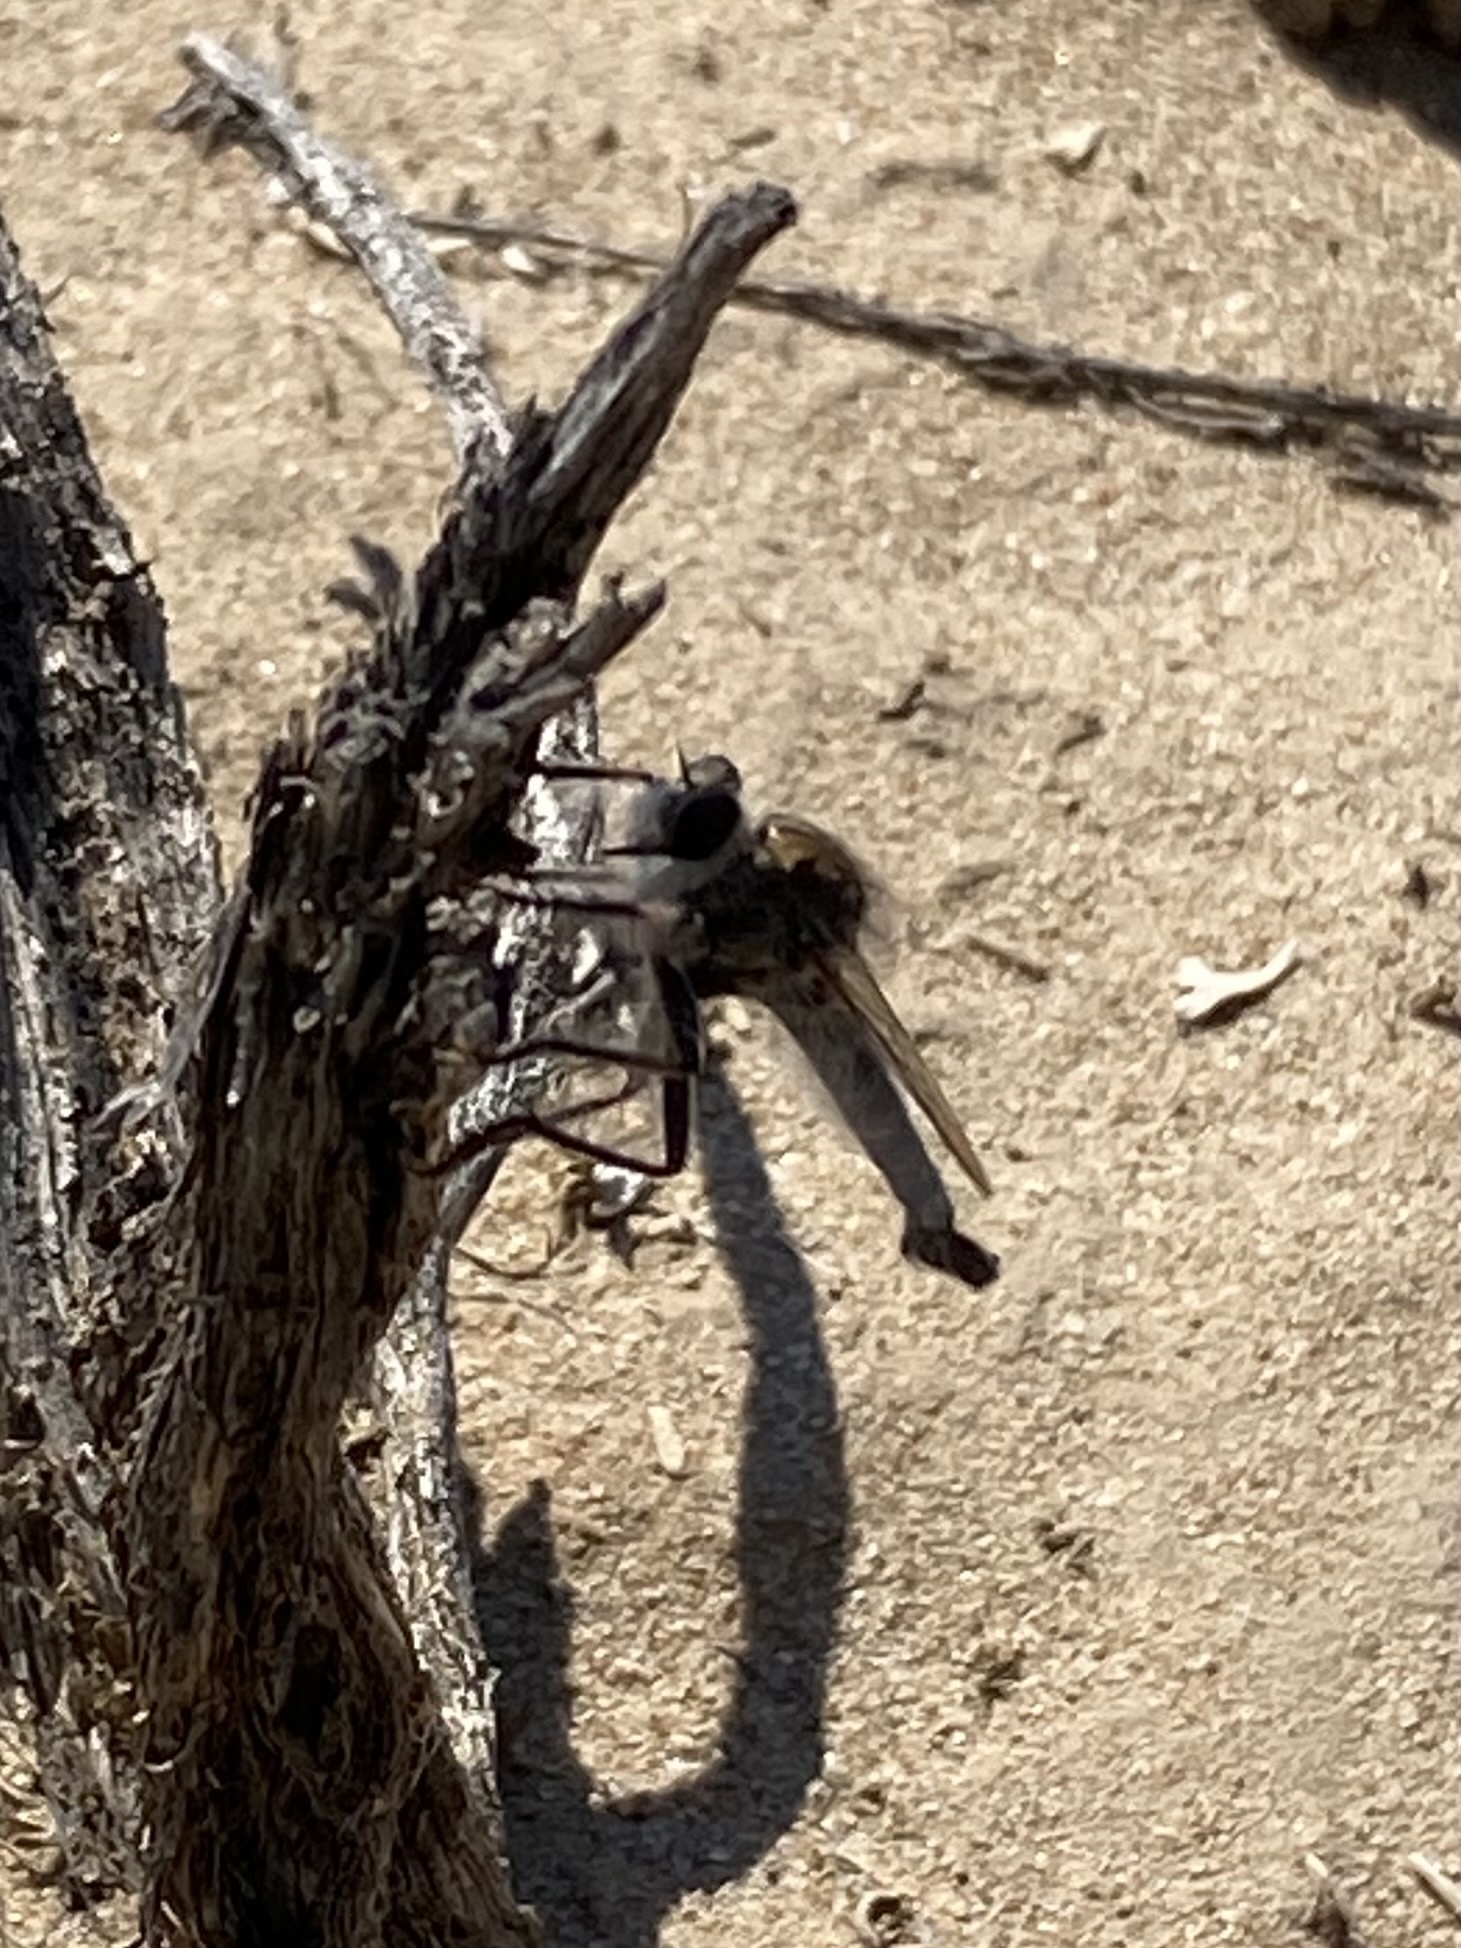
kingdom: Animalia
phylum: Arthropoda
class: Insecta
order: Diptera
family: Asilidae
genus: Efferia
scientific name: Efferia
